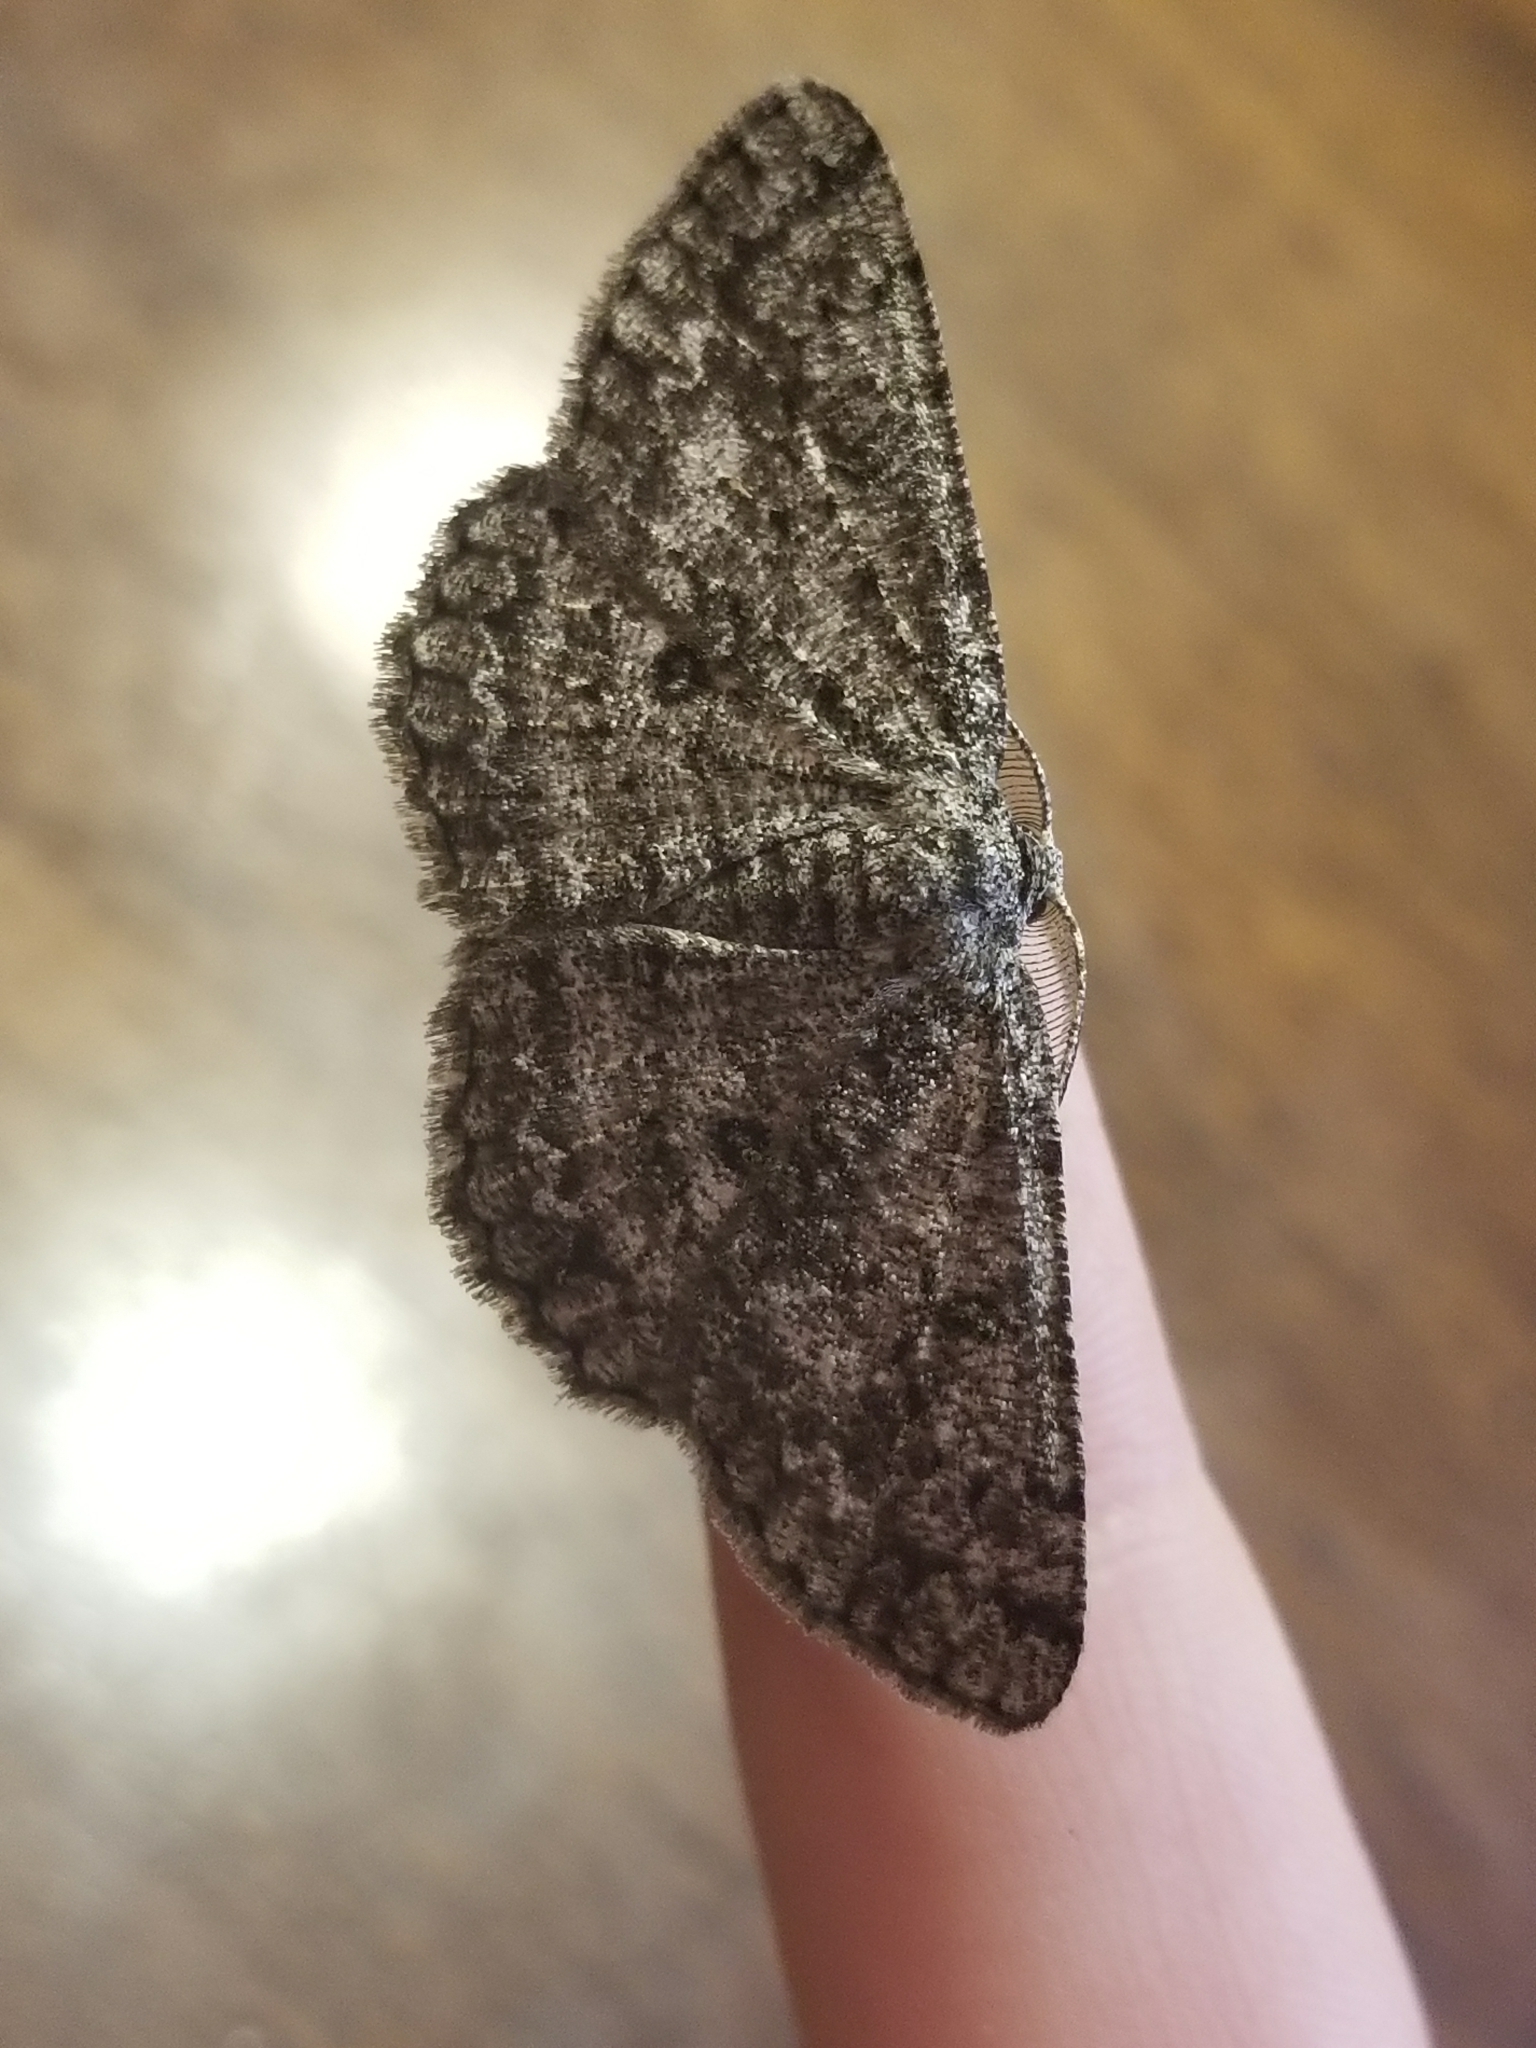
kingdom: Animalia
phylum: Arthropoda
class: Insecta
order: Lepidoptera
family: Geometridae
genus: Hypomecis
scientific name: Hypomecis umbrosaria
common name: Umber moth
